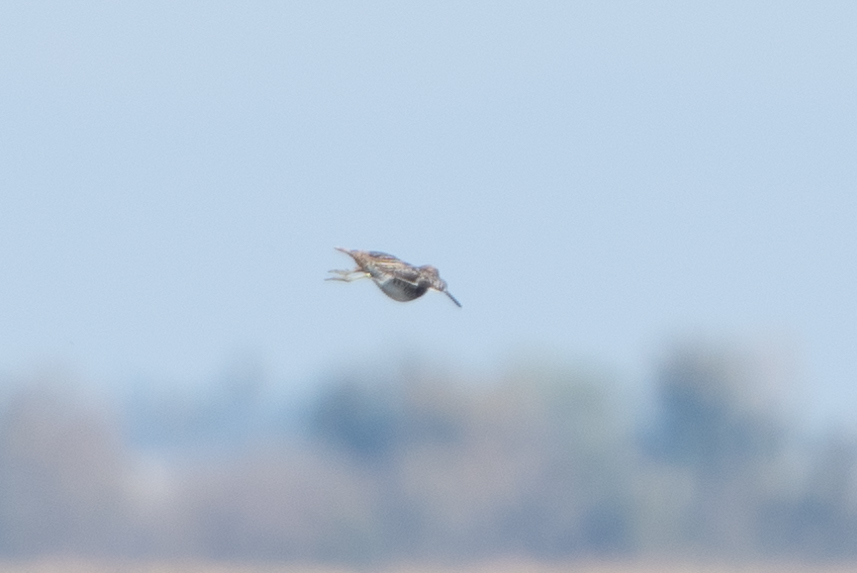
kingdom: Animalia
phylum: Chordata
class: Aves
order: Charadriiformes
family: Scolopacidae
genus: Gallinago
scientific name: Gallinago delicata
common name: Wilson's snipe
